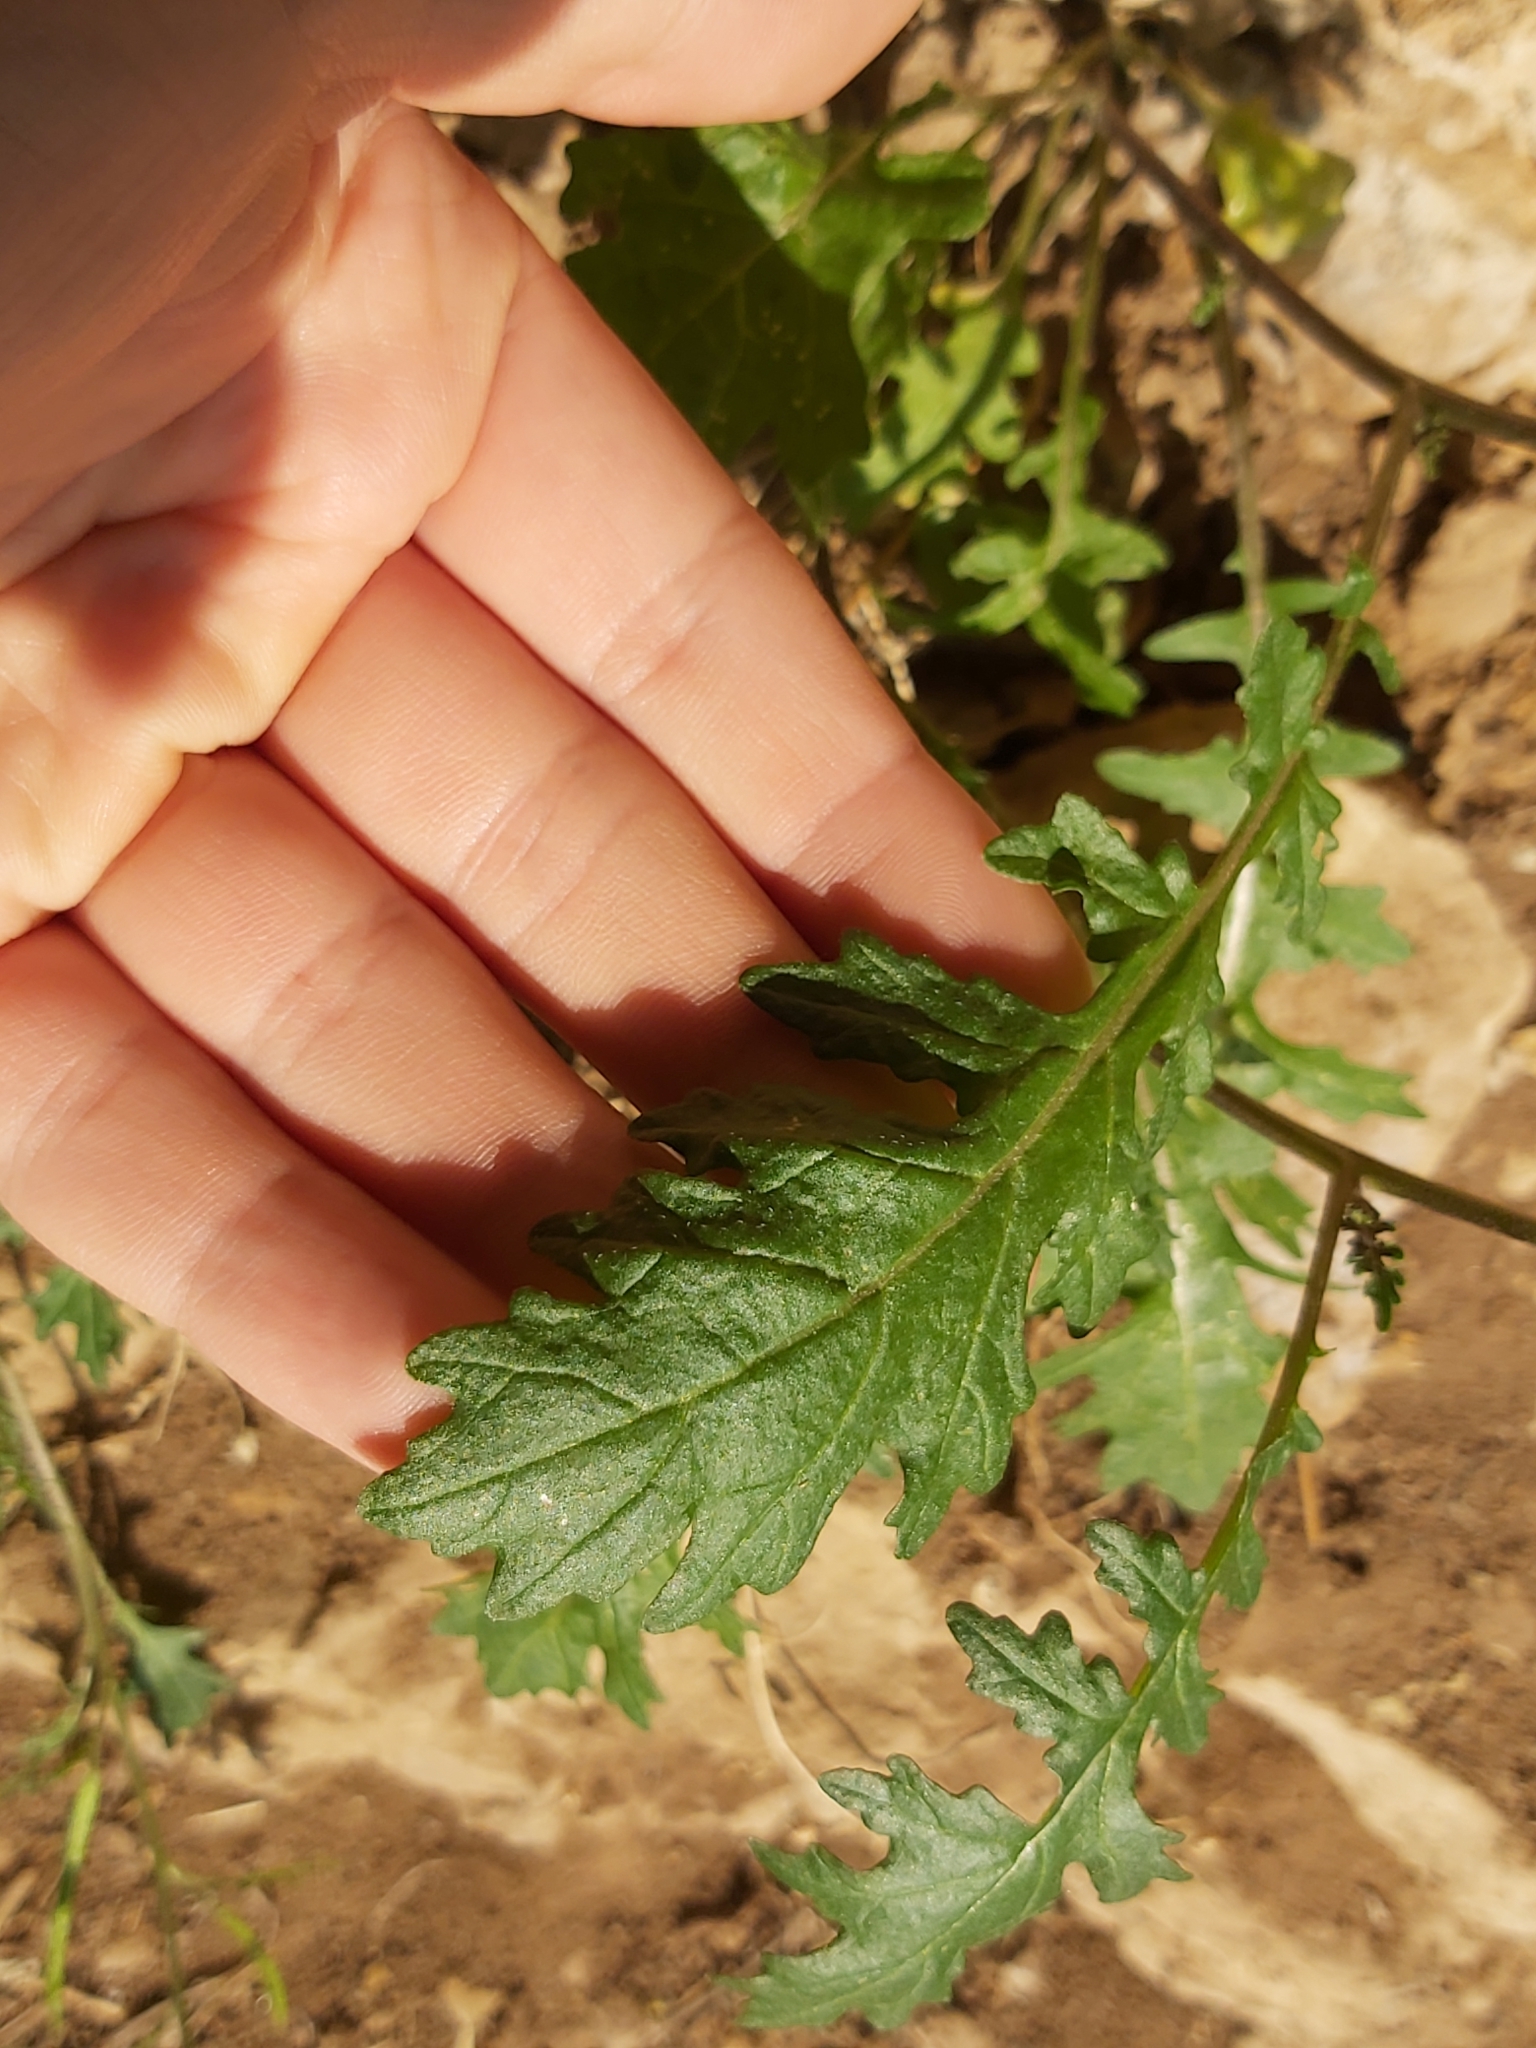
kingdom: Plantae
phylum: Tracheophyta
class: Magnoliopsida
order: Brassicales
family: Brassicaceae
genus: Erucastrum
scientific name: Erucastrum gallicum
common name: Hairy rocket
